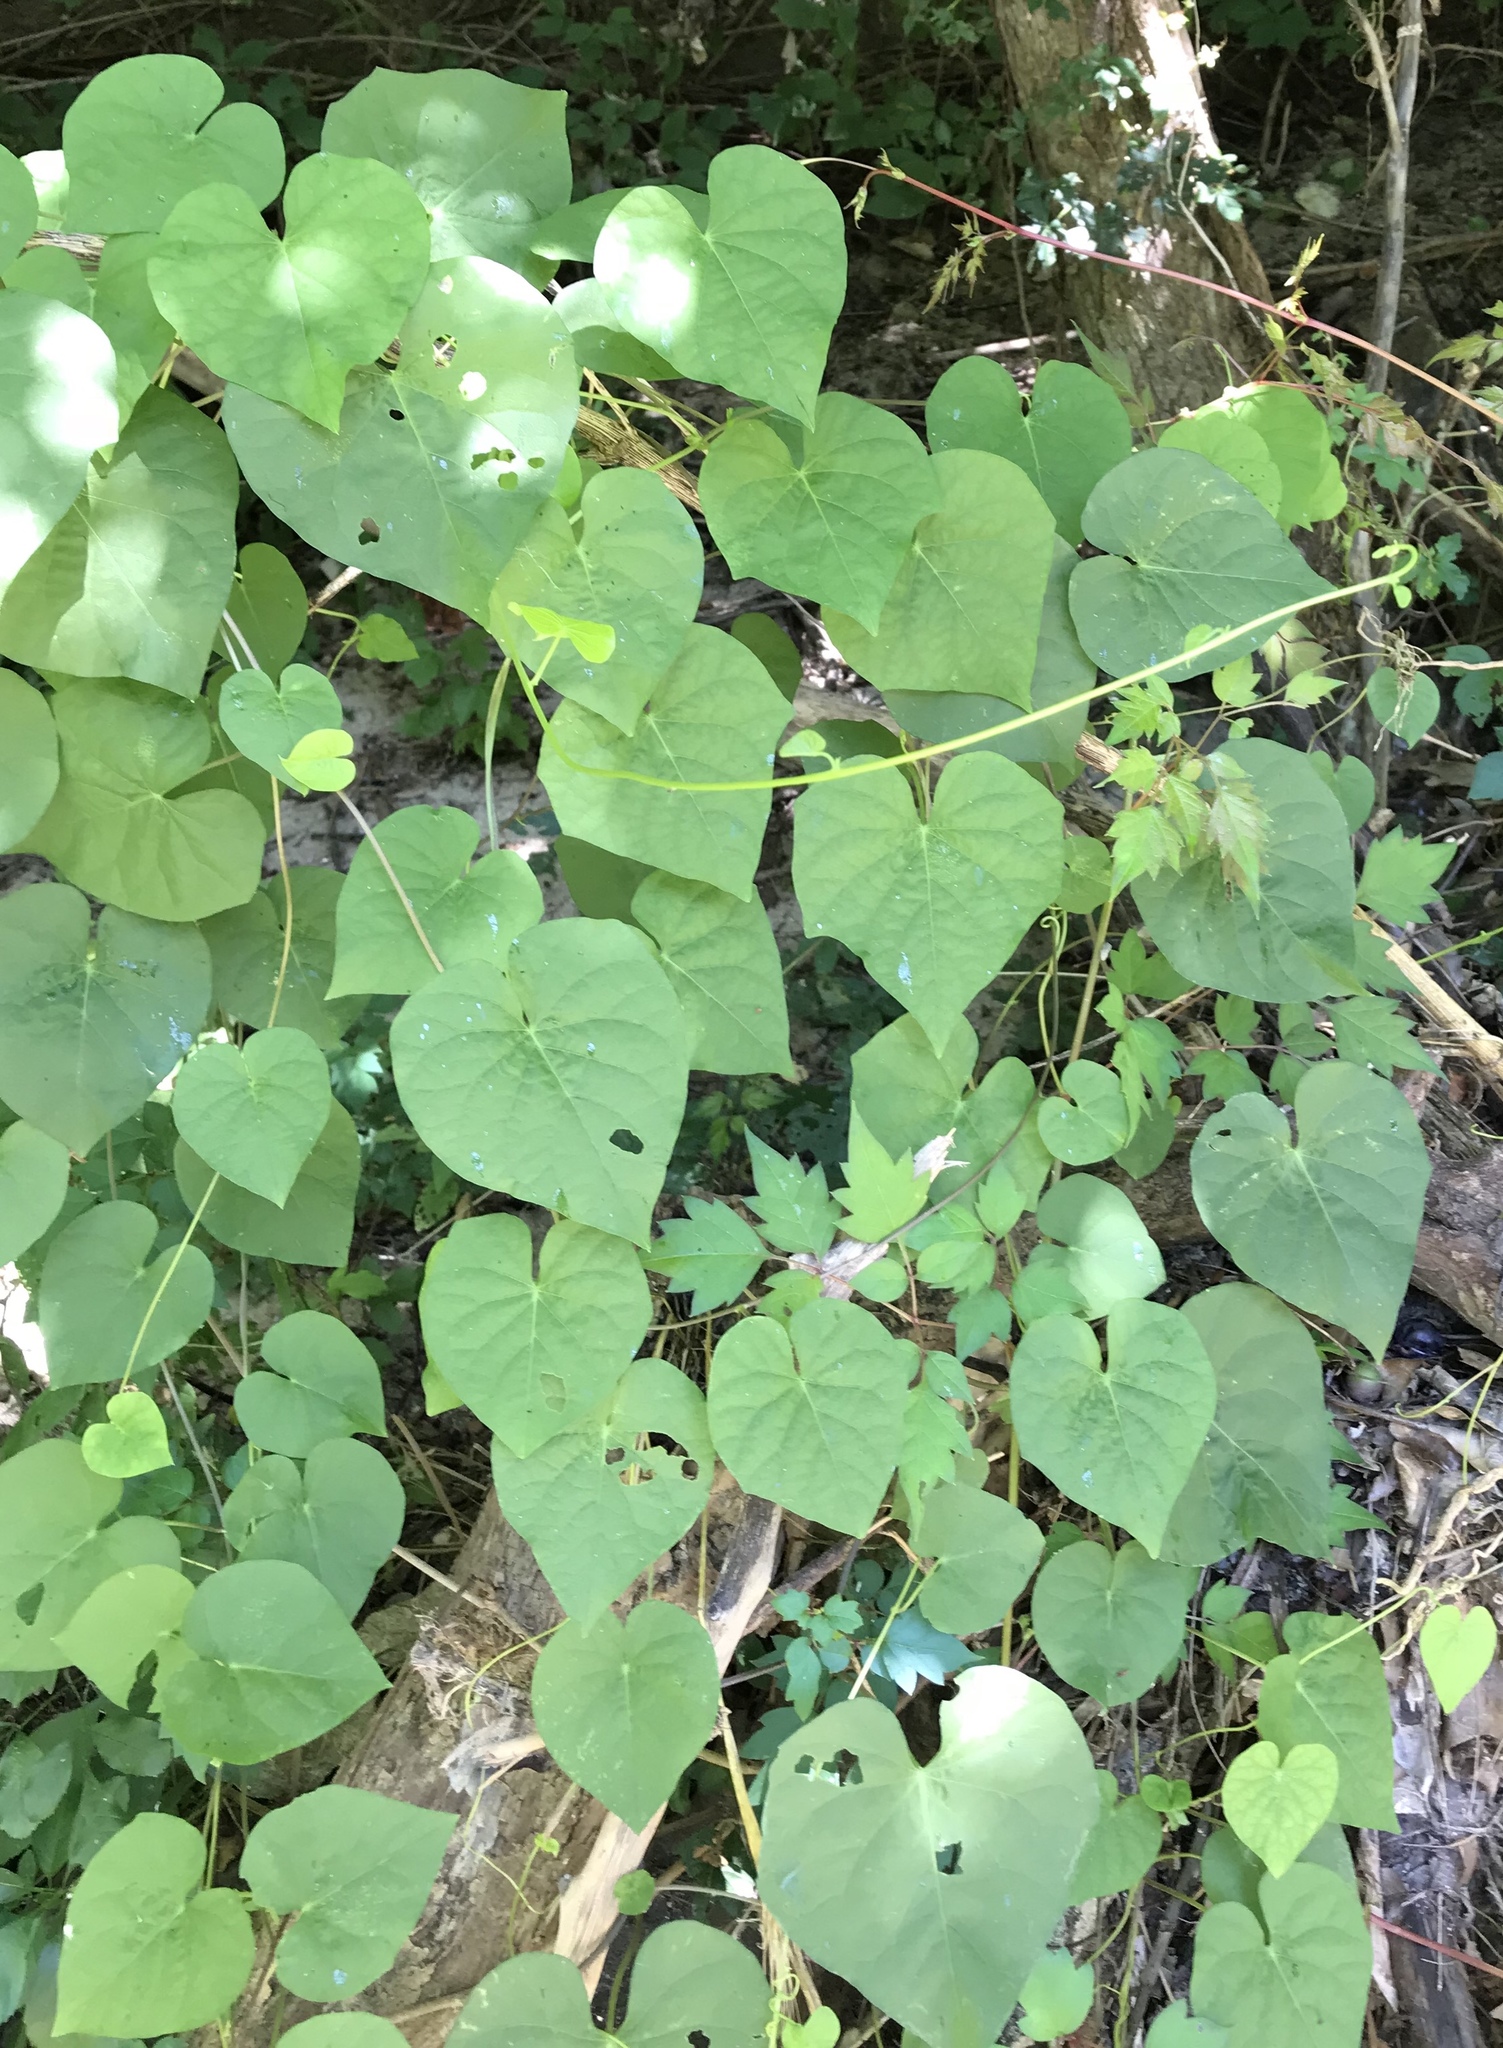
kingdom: Plantae
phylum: Tracheophyta
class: Magnoliopsida
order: Solanales
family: Convolvulaceae
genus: Ipomoea
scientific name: Ipomoea cordatotriloba
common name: Cotton morning glory
